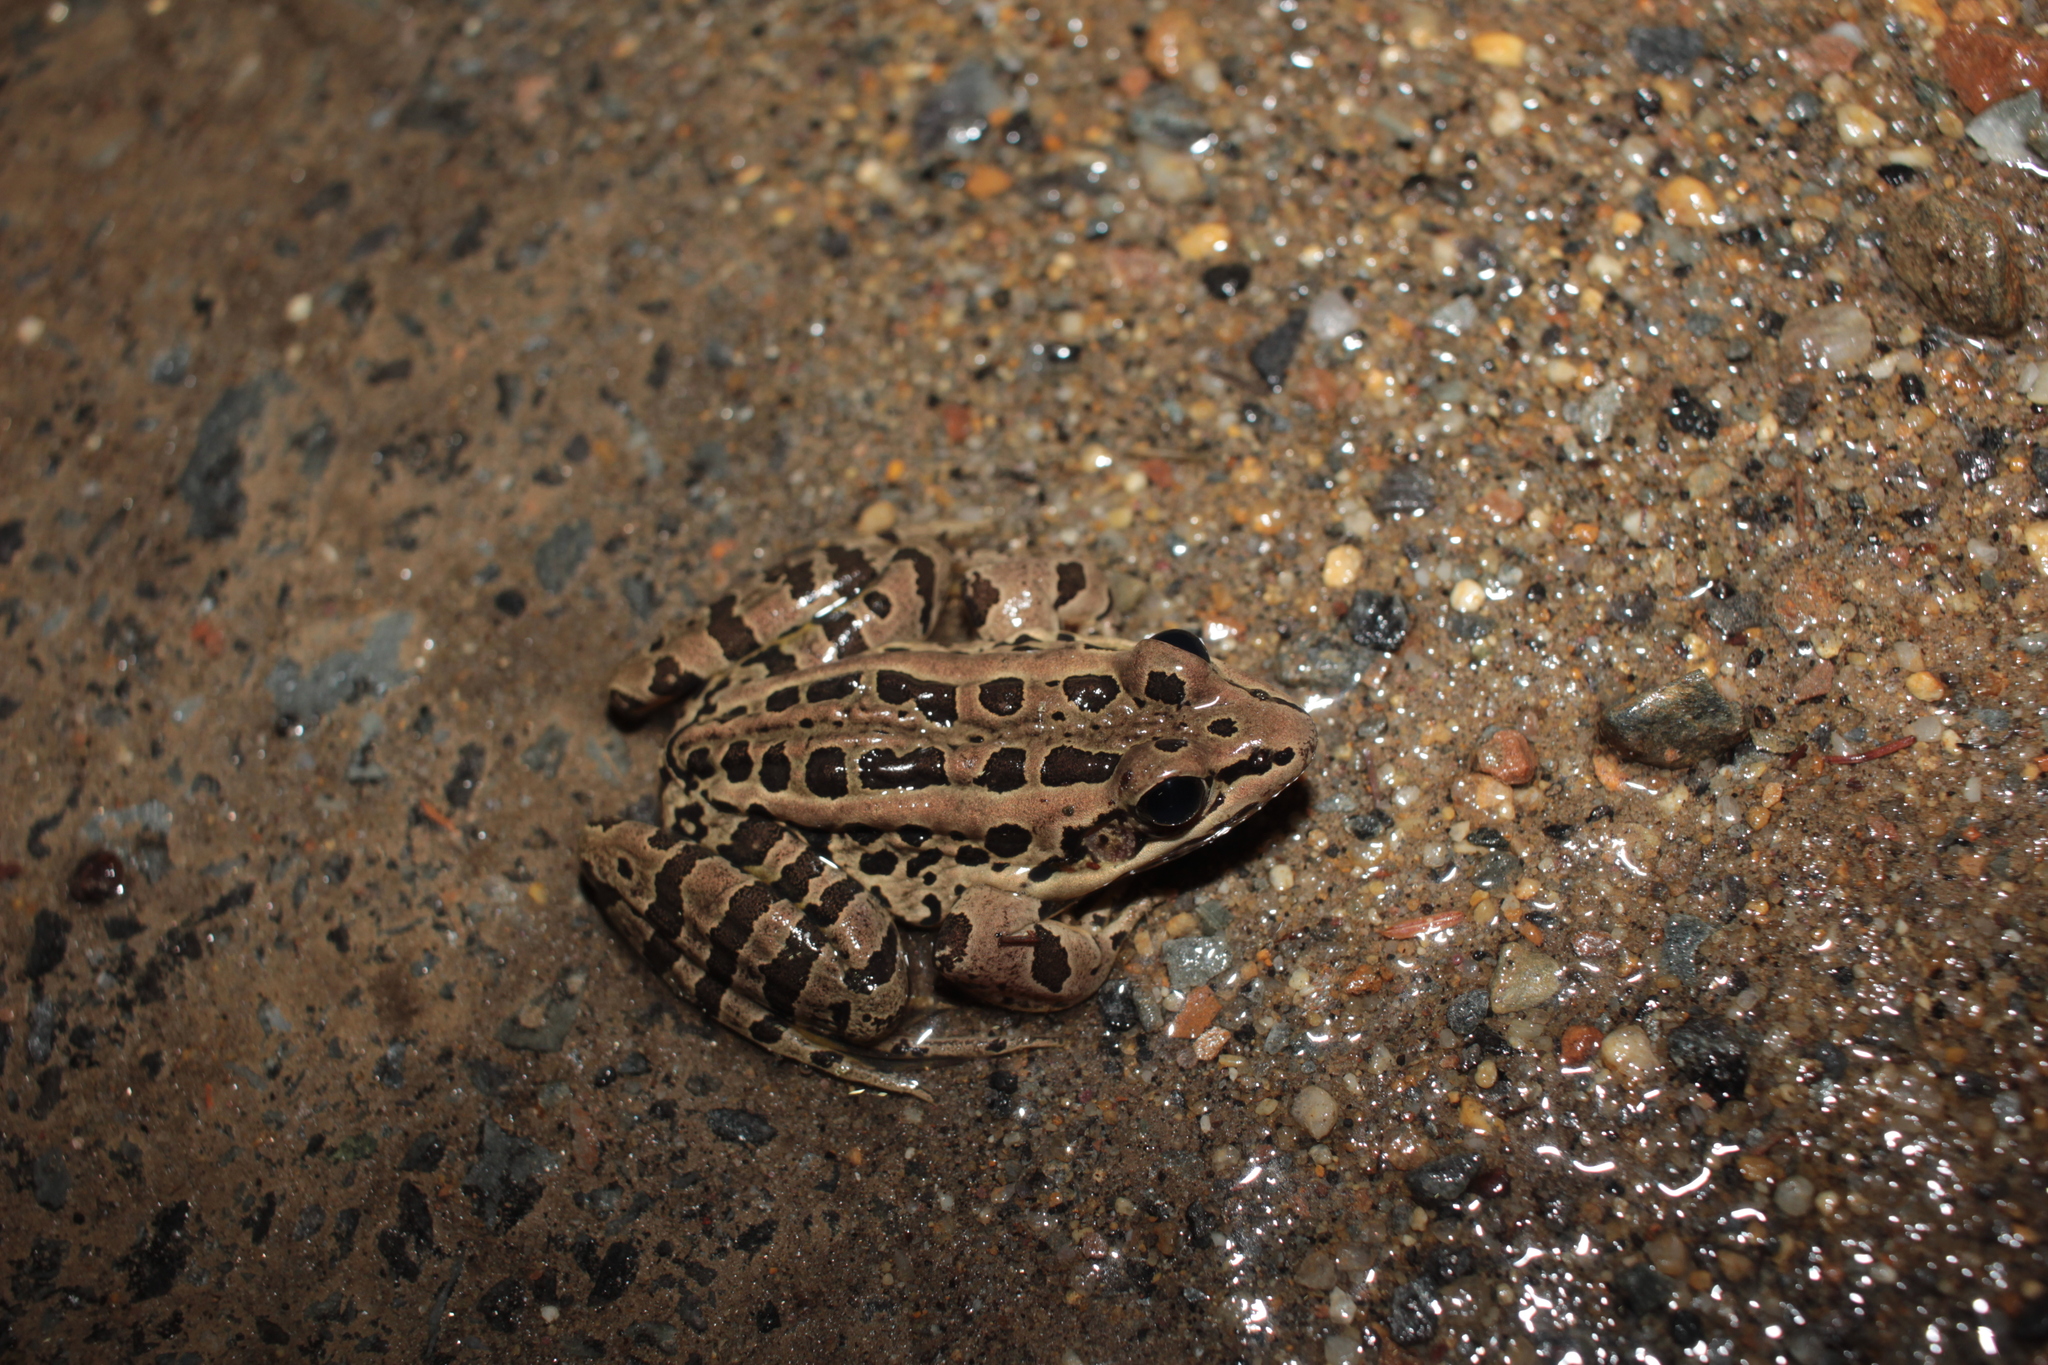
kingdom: Animalia
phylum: Chordata
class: Amphibia
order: Anura
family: Ranidae
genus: Lithobates
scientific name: Lithobates palustris
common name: Pickerel frog
